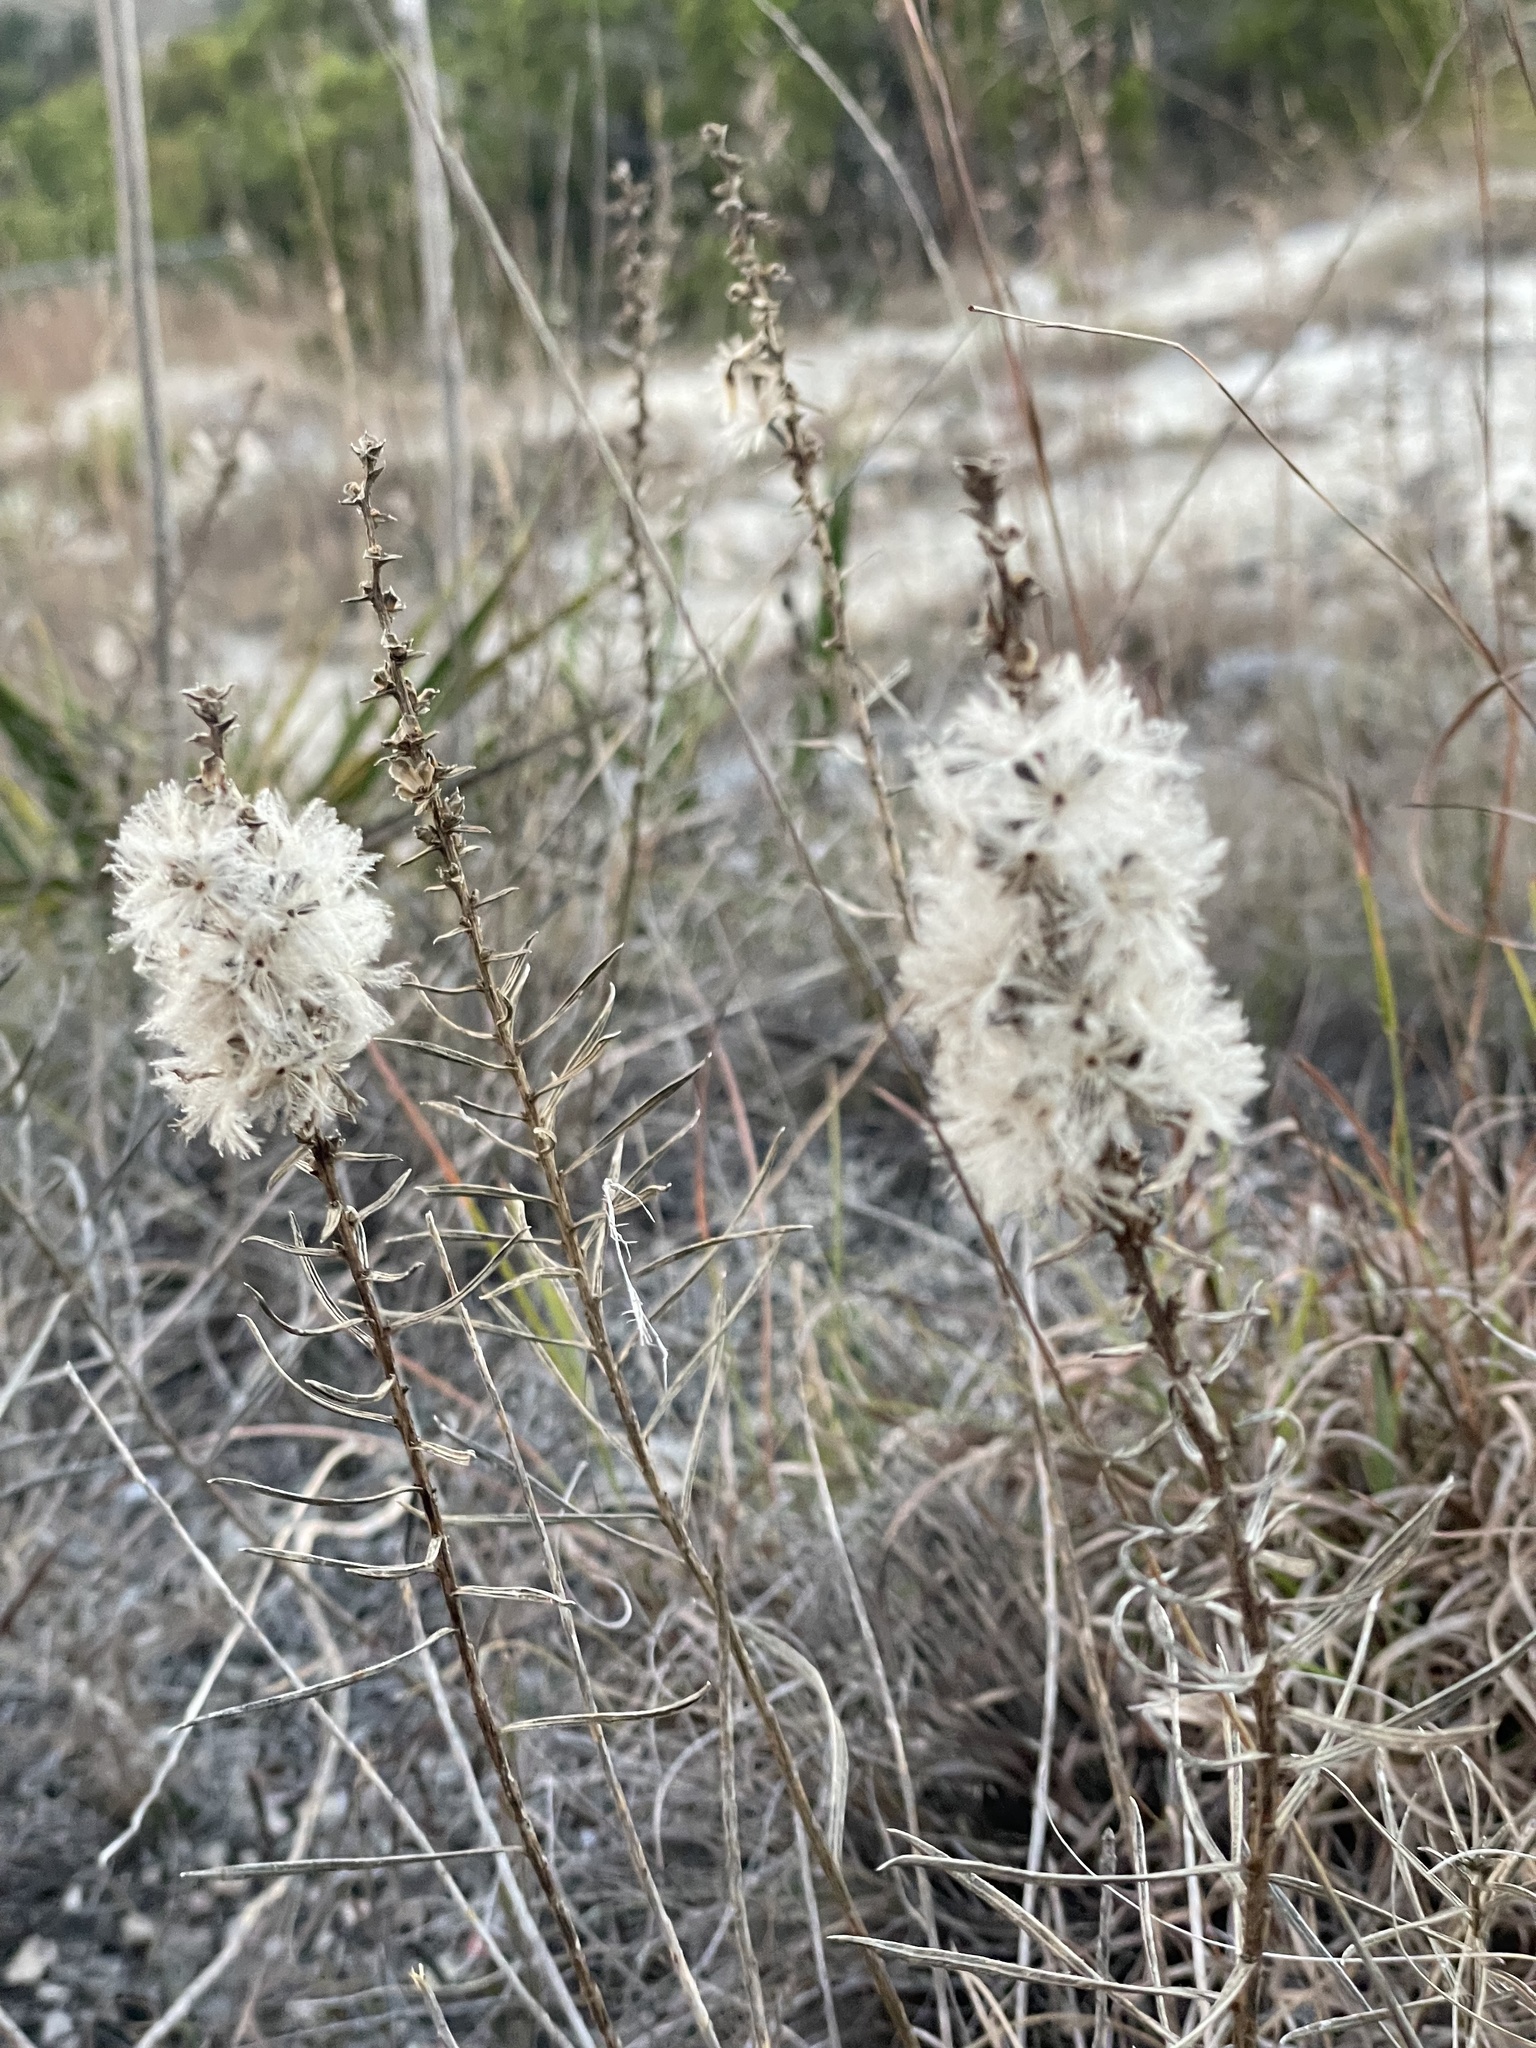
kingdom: Plantae
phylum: Tracheophyta
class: Magnoliopsida
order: Asterales
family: Asteraceae
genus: Liatris
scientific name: Liatris punctata
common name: Dotted gayfeather
